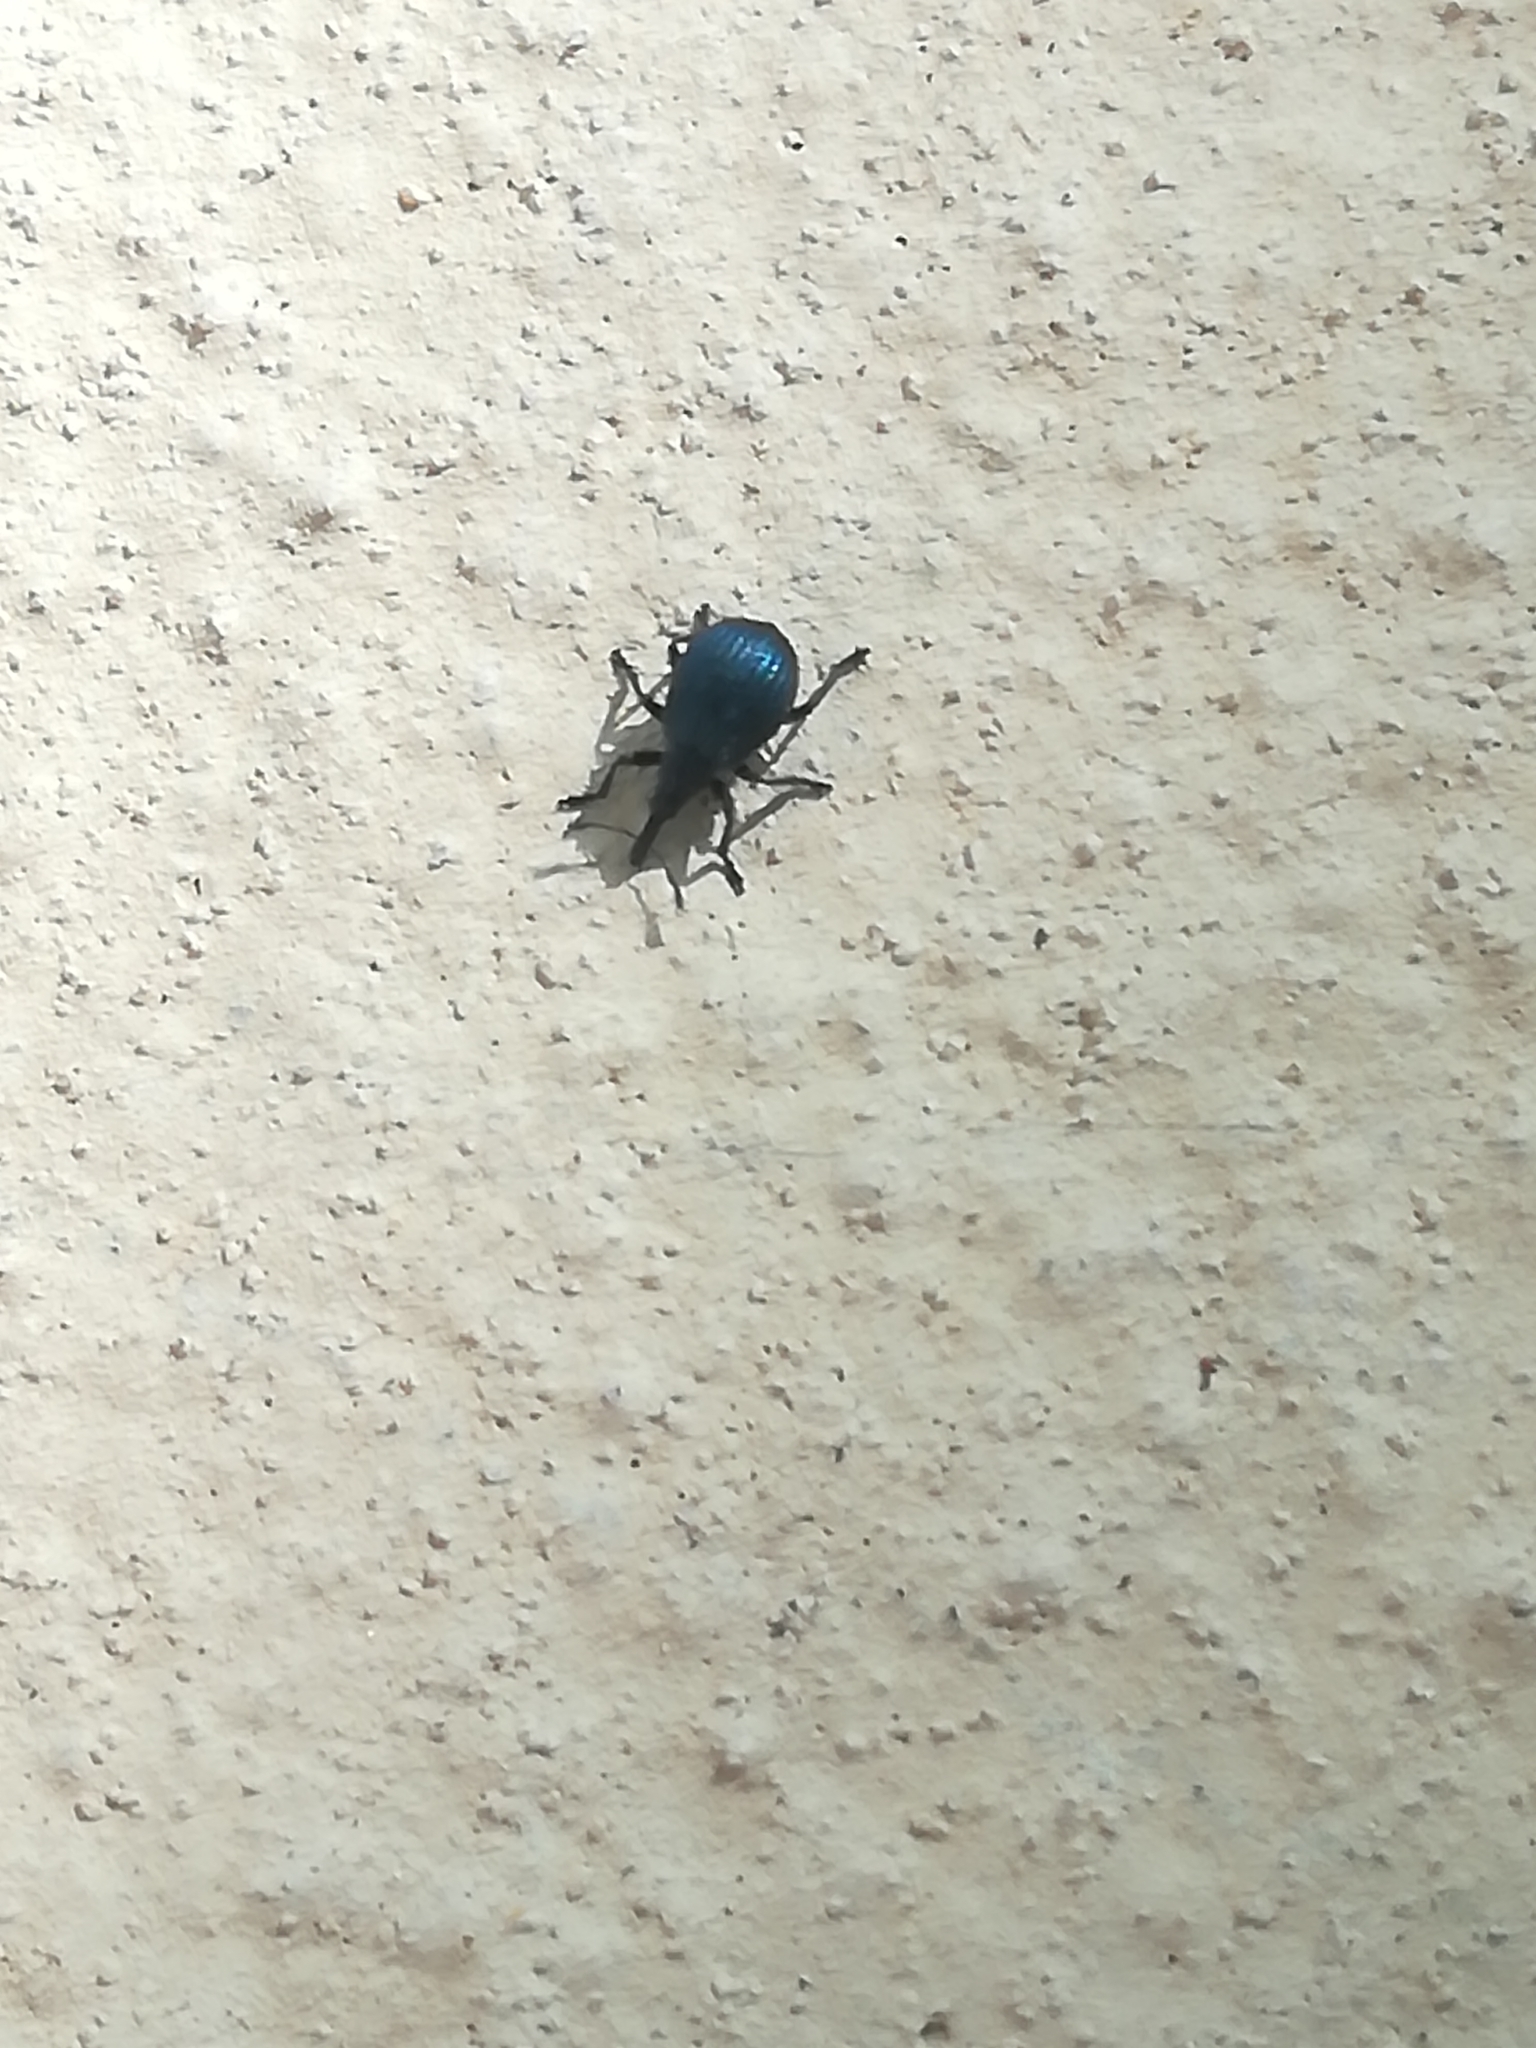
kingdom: Animalia
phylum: Arthropoda
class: Insecta
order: Coleoptera
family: Apionidae
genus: Holotrichapion
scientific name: Holotrichapion pisi
